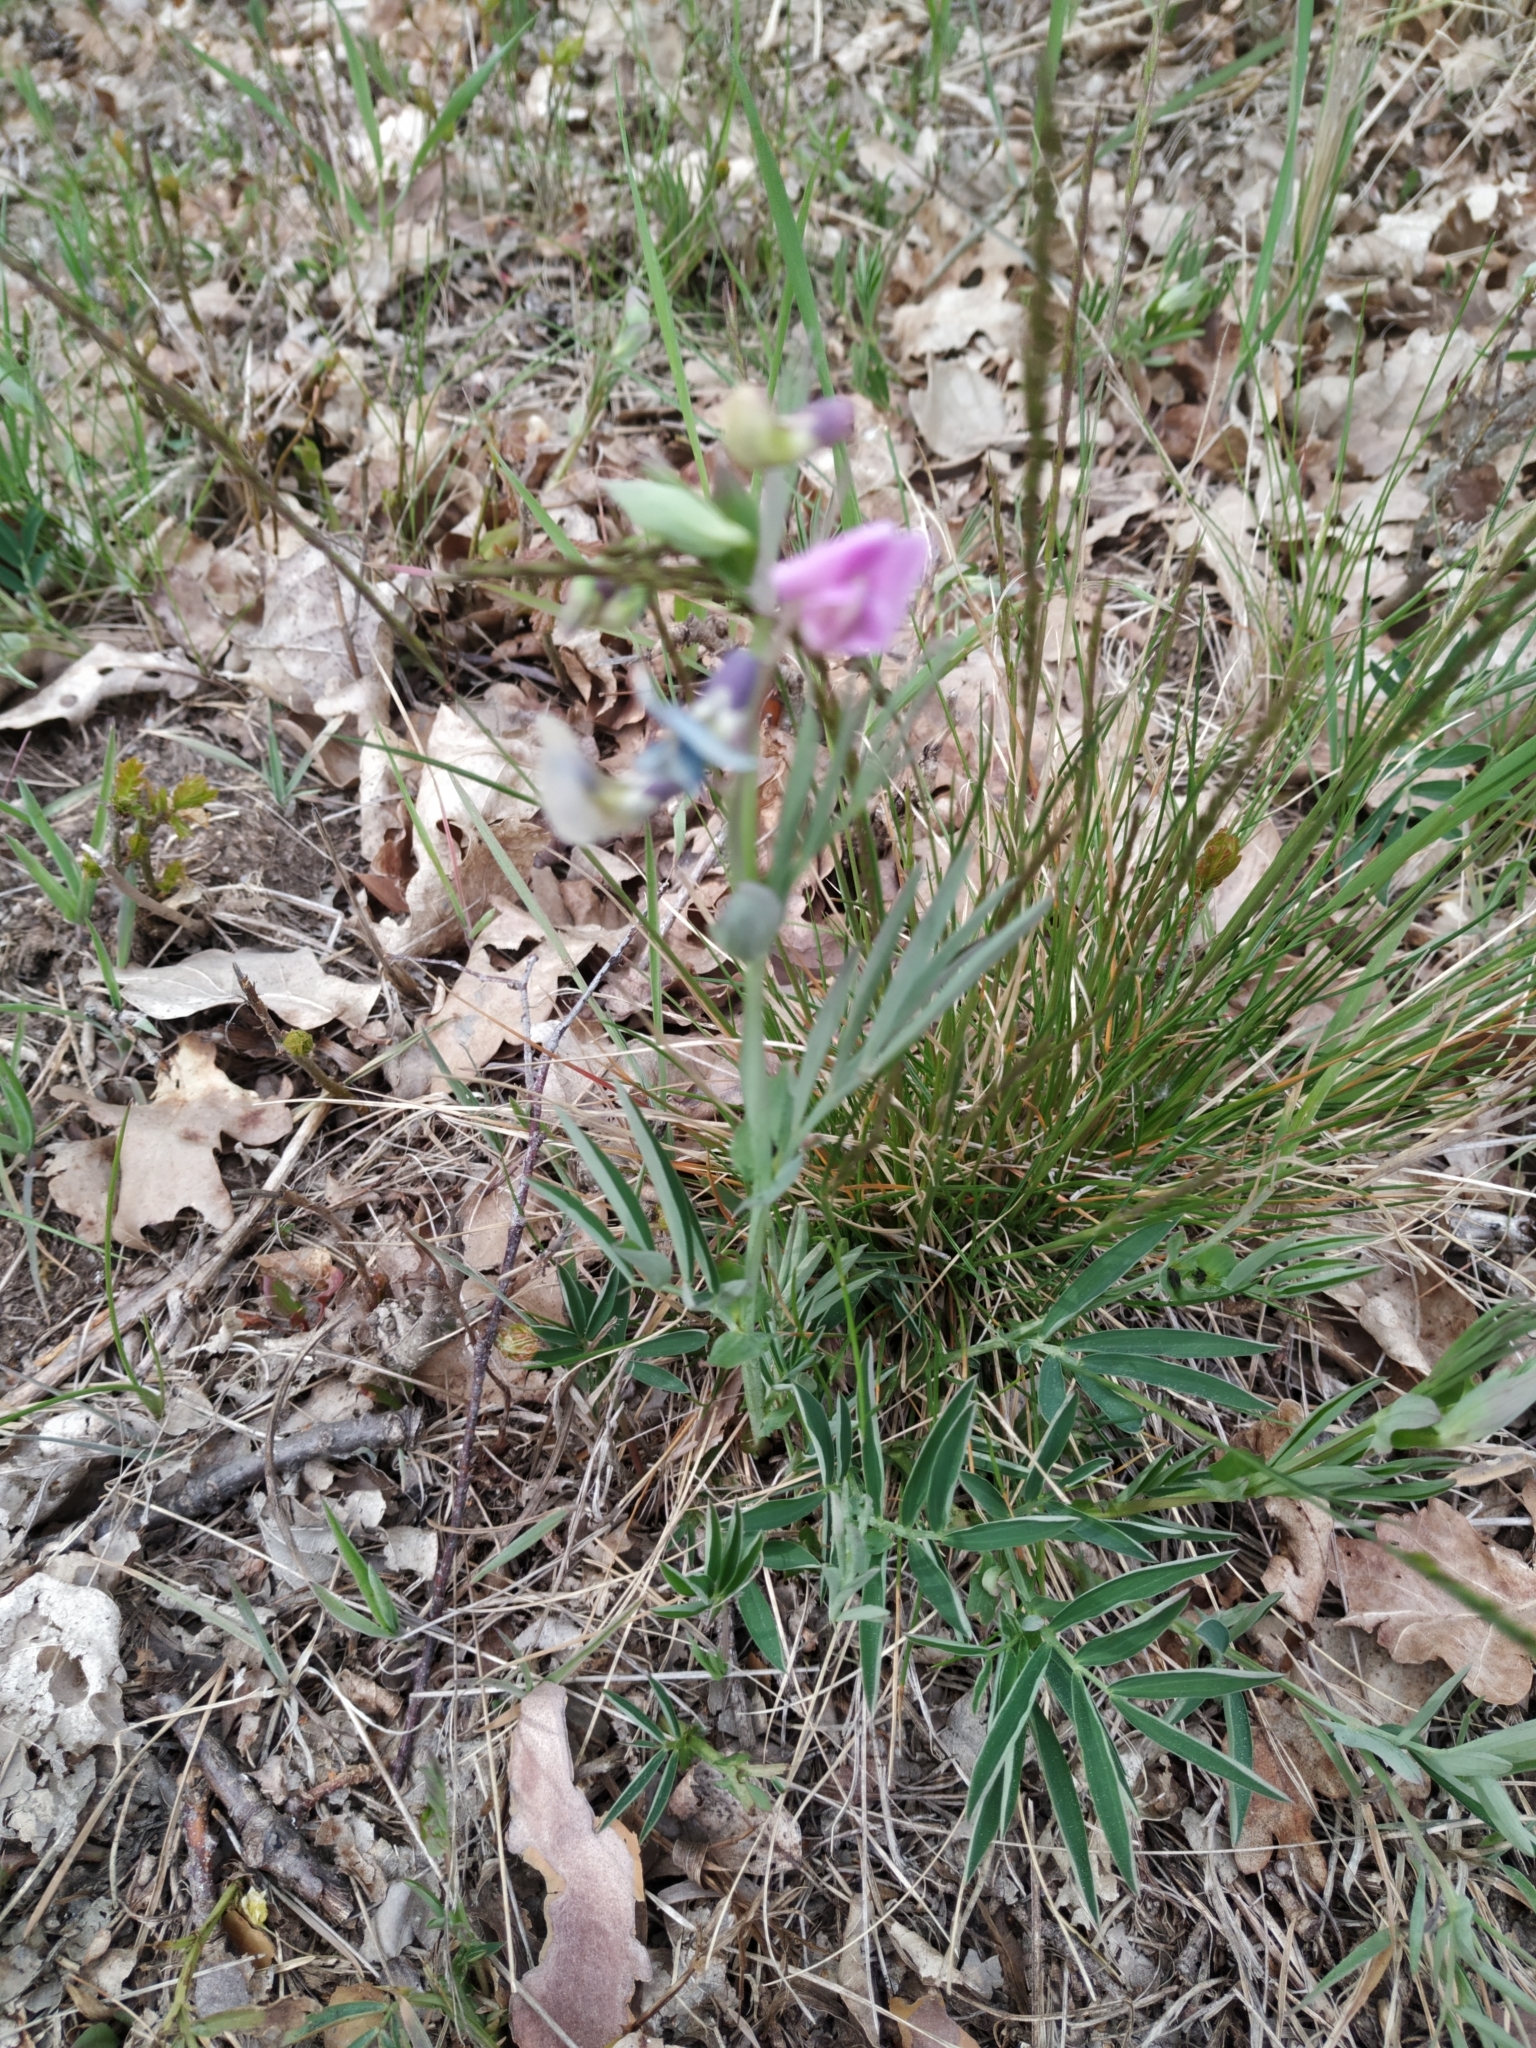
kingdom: Plantae
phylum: Tracheophyta
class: Magnoliopsida
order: Fabales
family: Fabaceae
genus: Lathyrus
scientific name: Lathyrus linifolius
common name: Bitter-vetch
